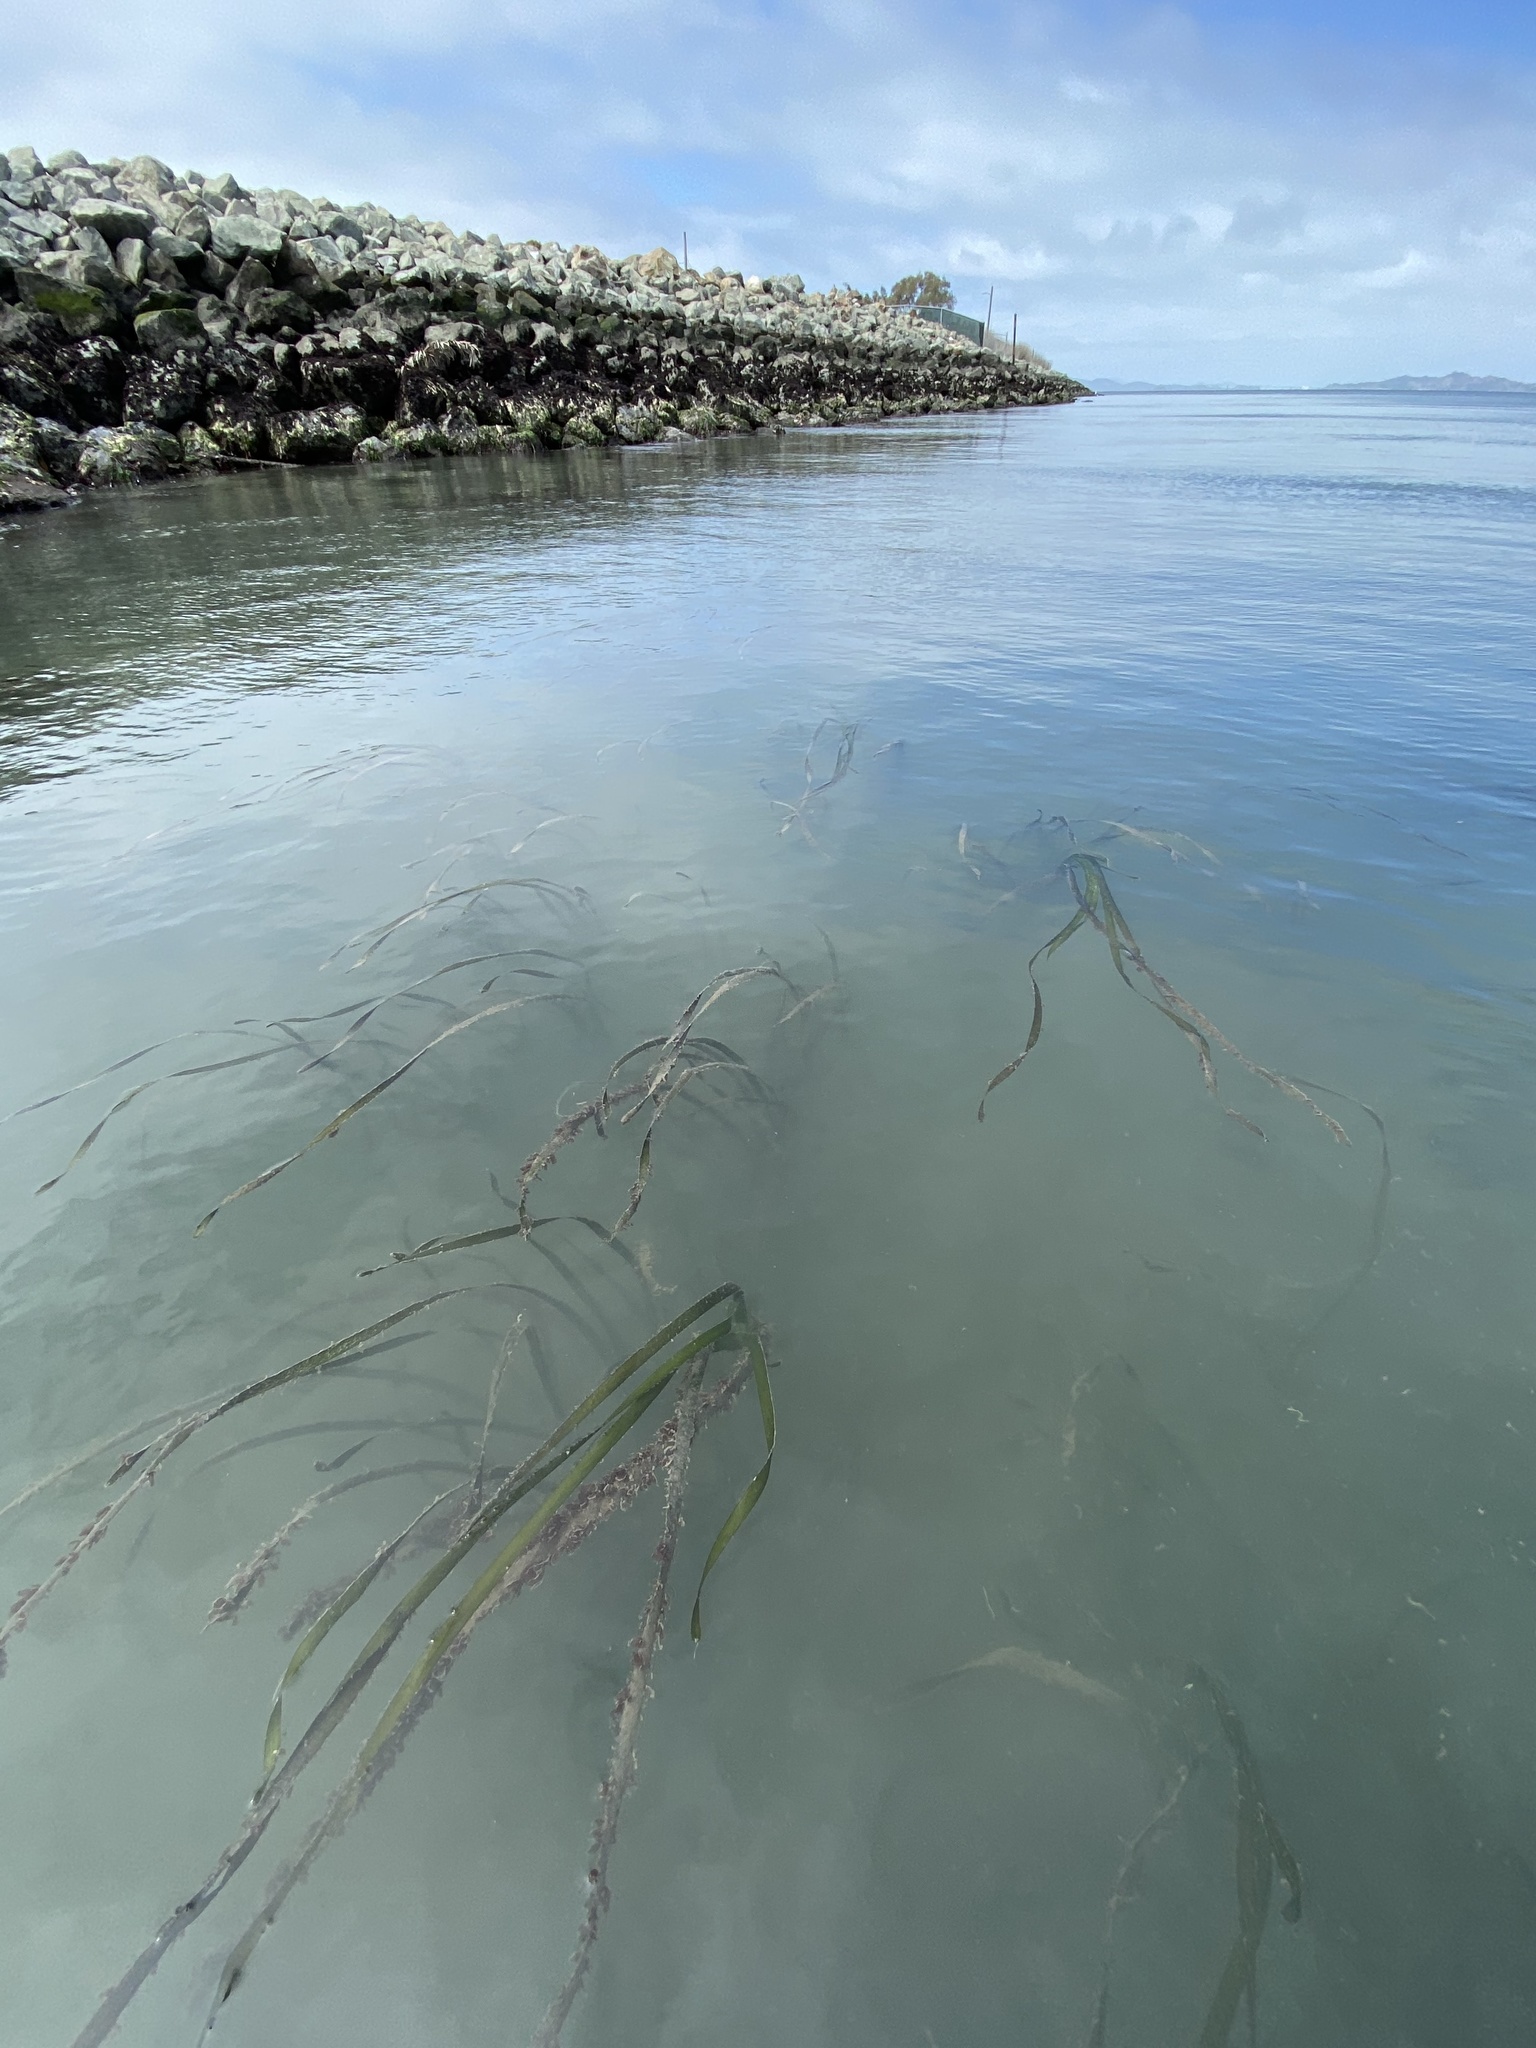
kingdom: Plantae
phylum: Tracheophyta
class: Liliopsida
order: Alismatales
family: Zosteraceae
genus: Zostera
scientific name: Zostera marina
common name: Eelgrass
